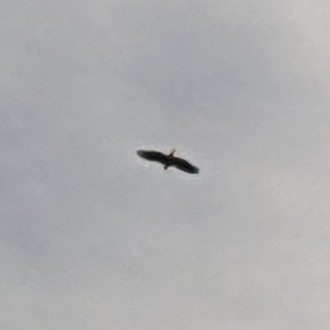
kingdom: Animalia
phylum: Chordata
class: Aves
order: Accipitriformes
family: Accipitridae
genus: Haliaeetus
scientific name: Haliaeetus leucocephalus
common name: Bald eagle
